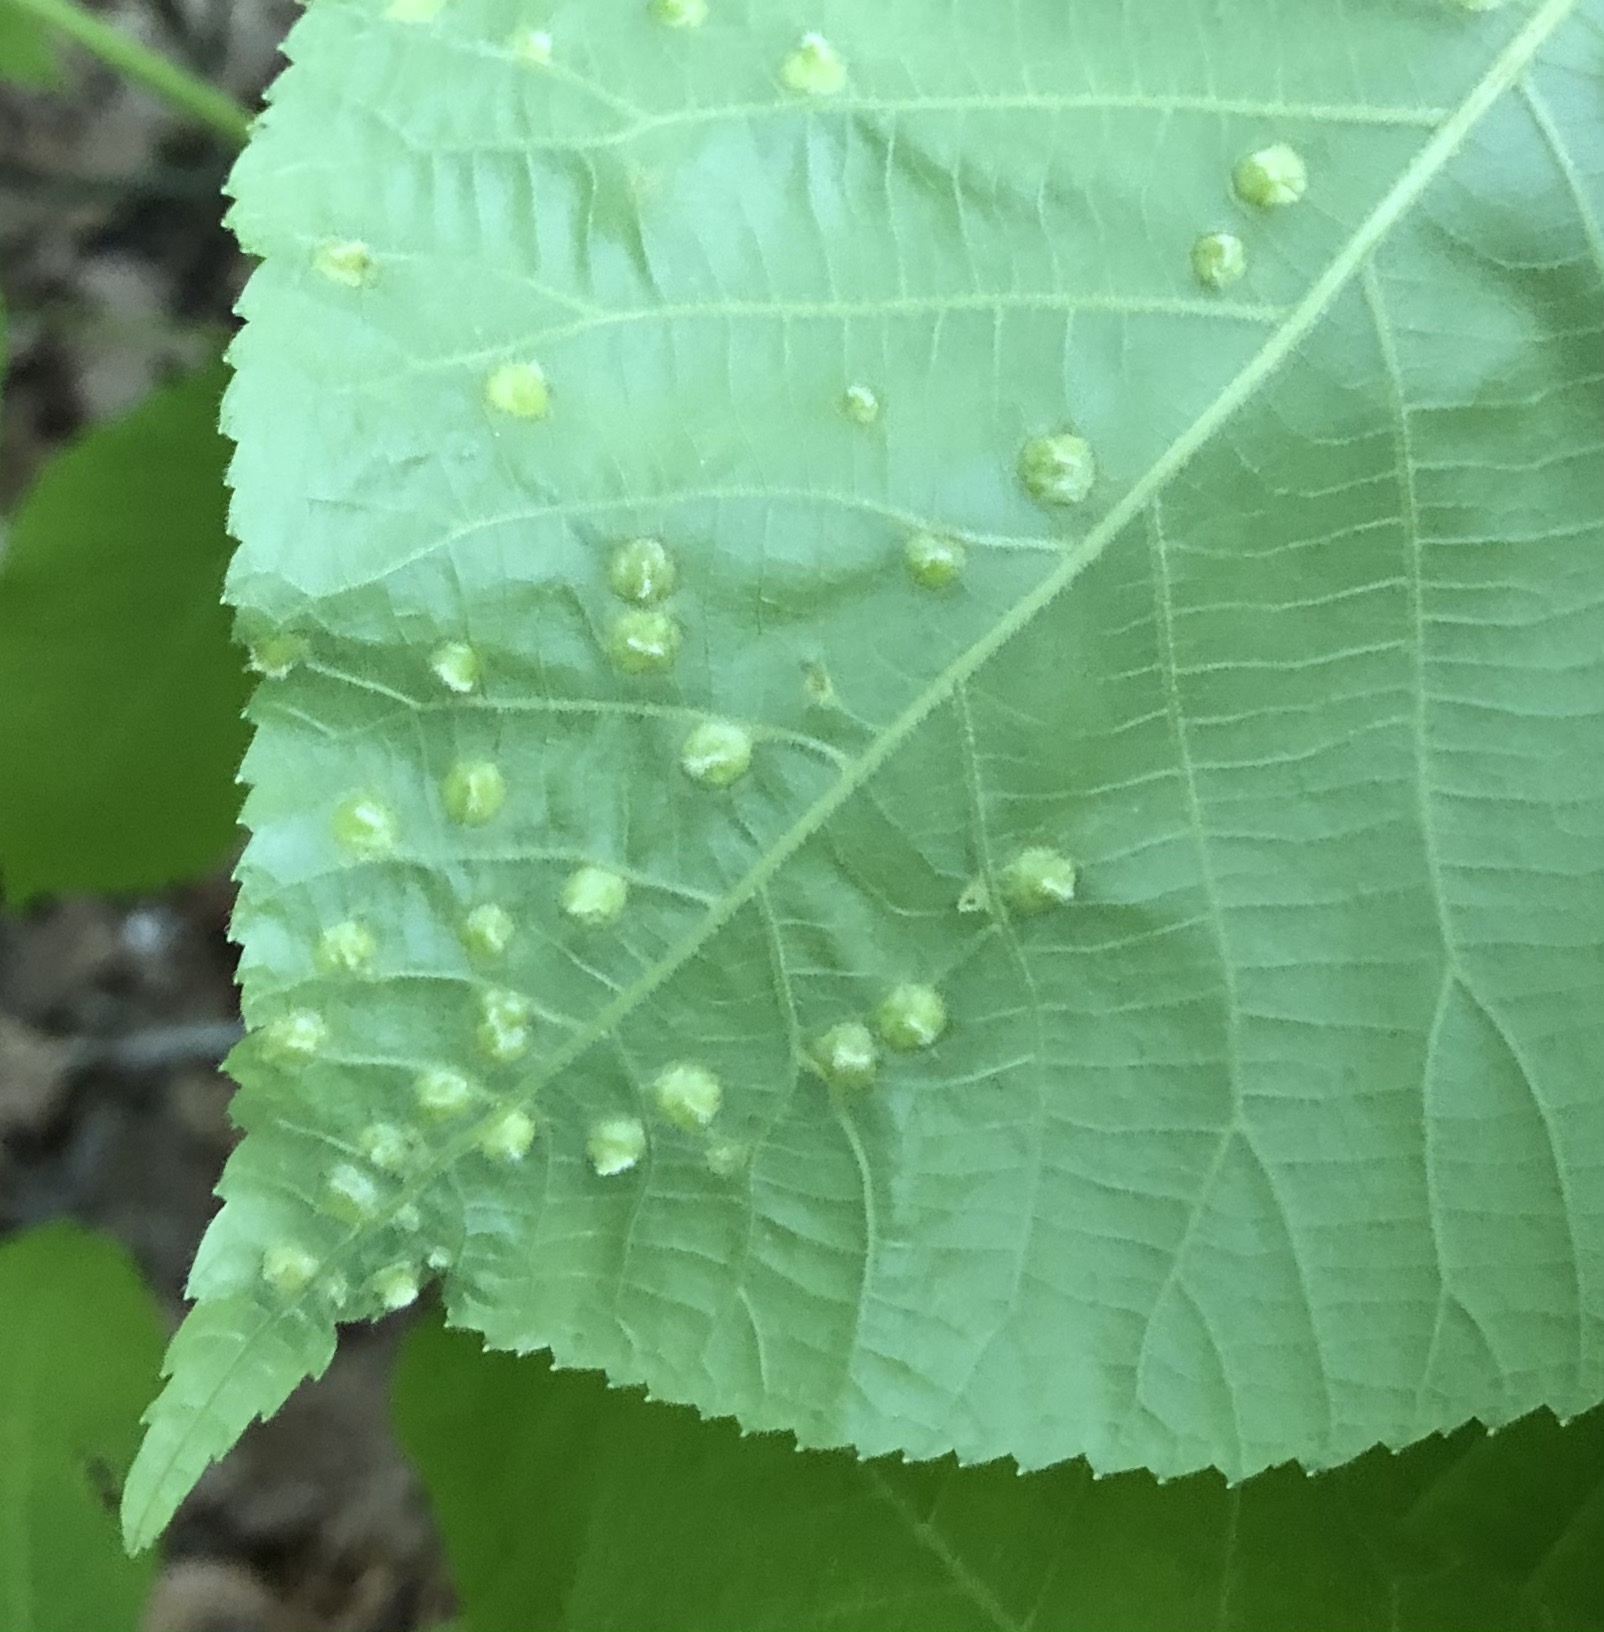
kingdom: Animalia
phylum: Arthropoda
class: Insecta
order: Hemiptera
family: Phylloxeridae
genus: Phylloxera
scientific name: Phylloxera caryaefallax
